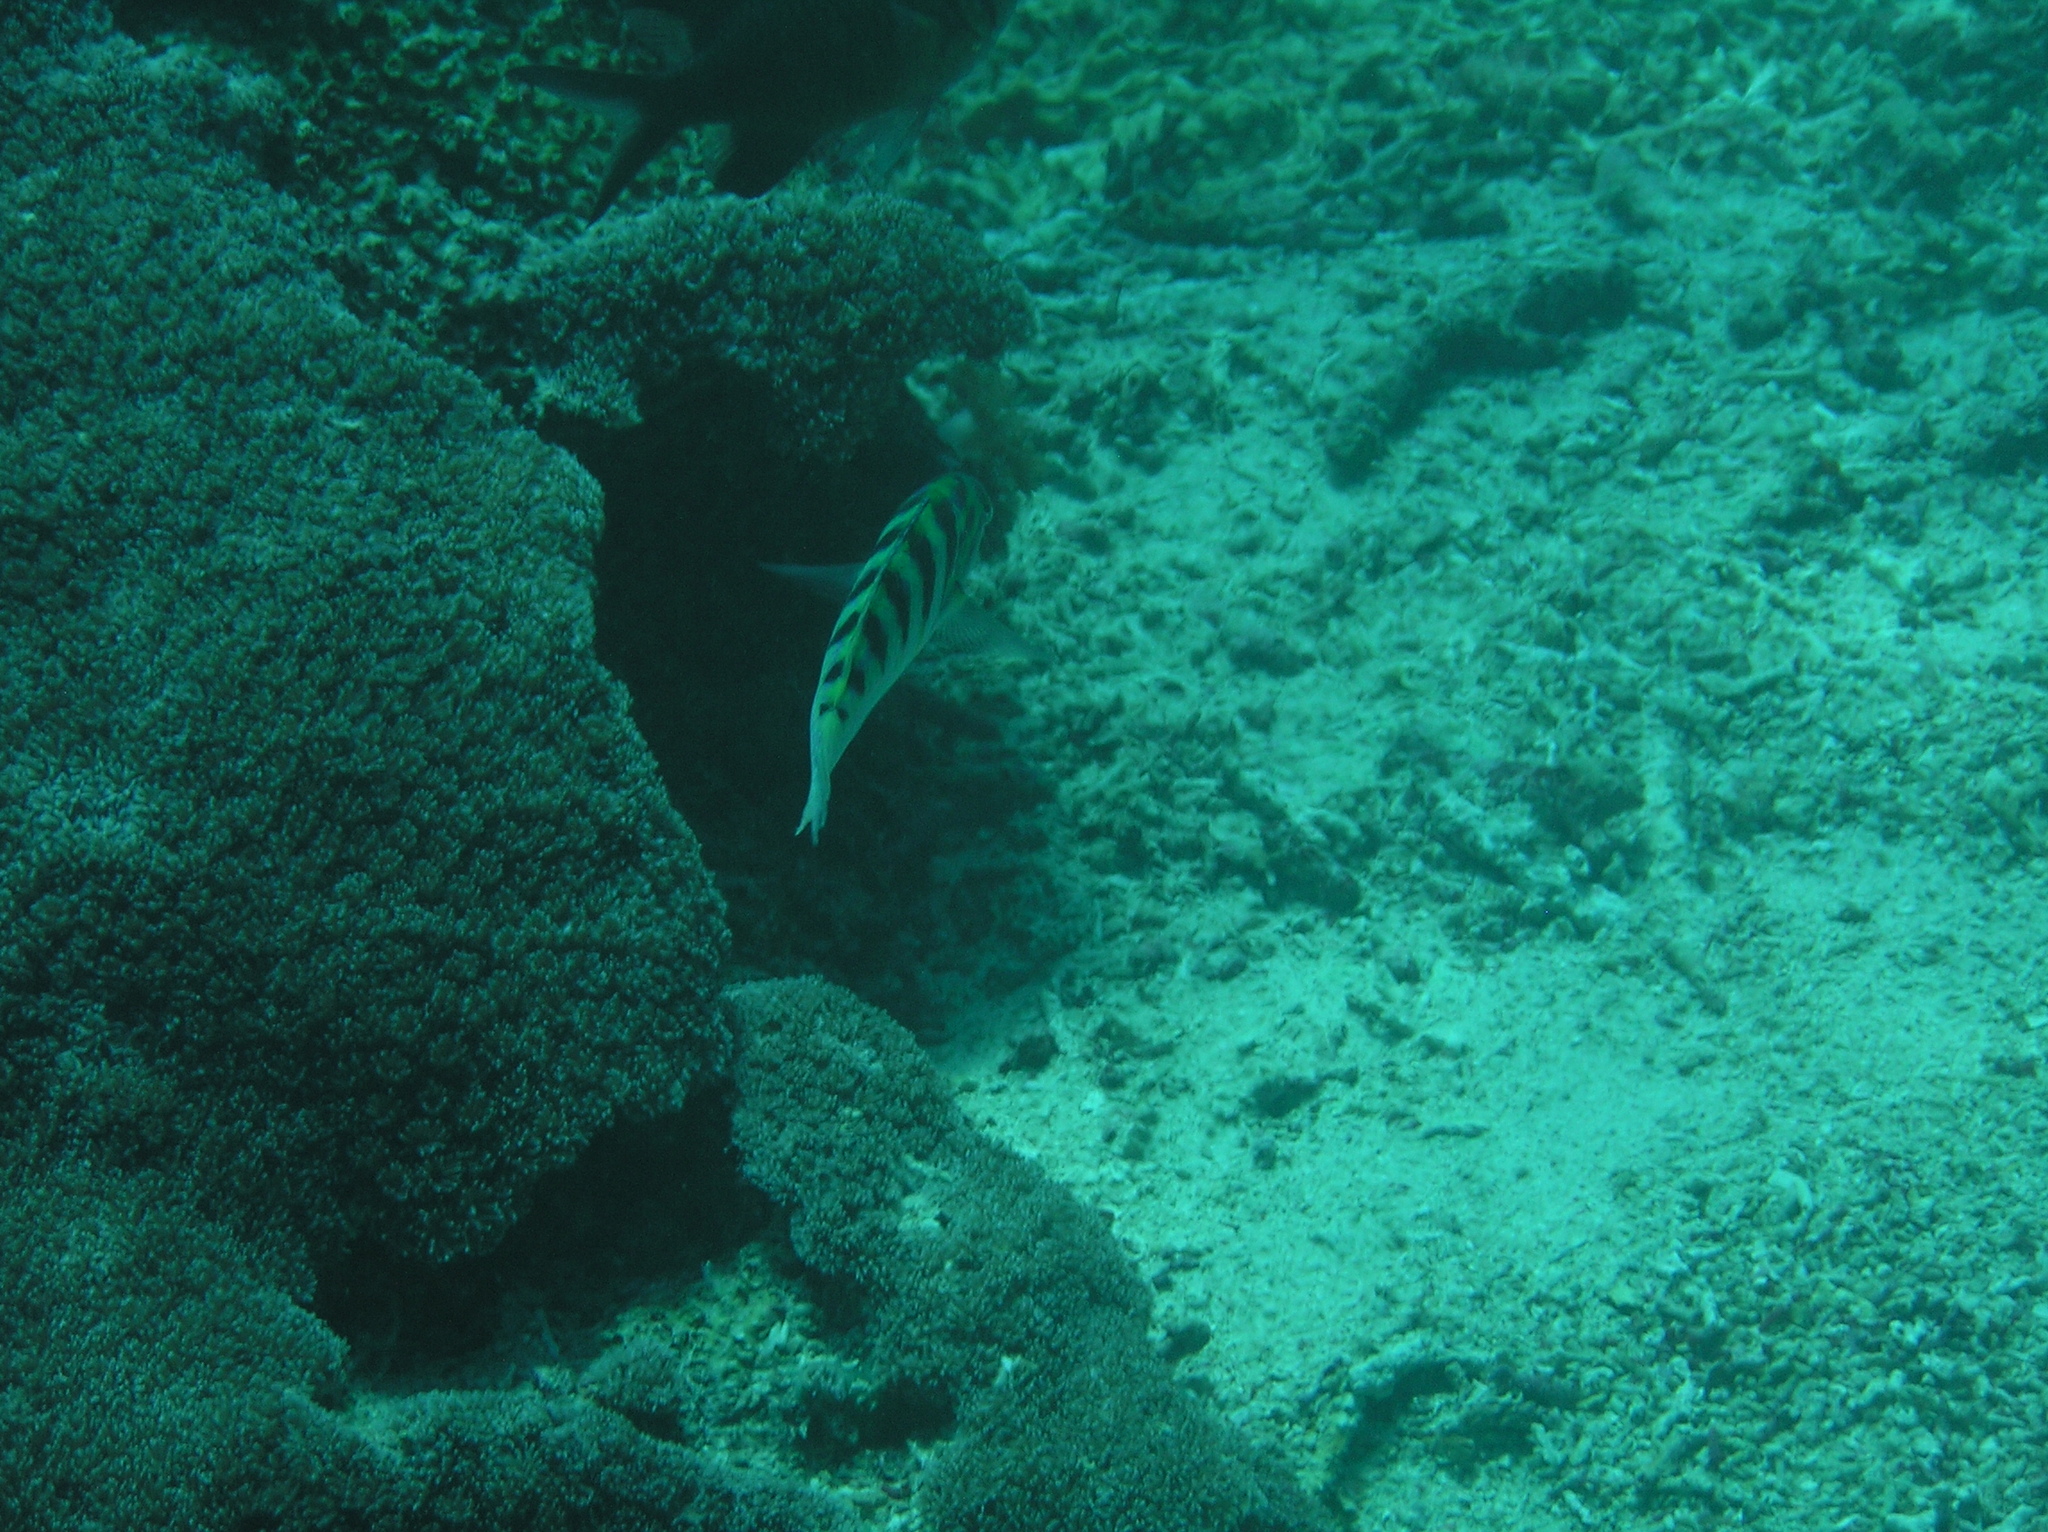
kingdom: Animalia
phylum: Chordata
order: Perciformes
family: Labridae
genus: Thalassoma
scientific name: Thalassoma hardwicke
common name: Sixbar wrasse
